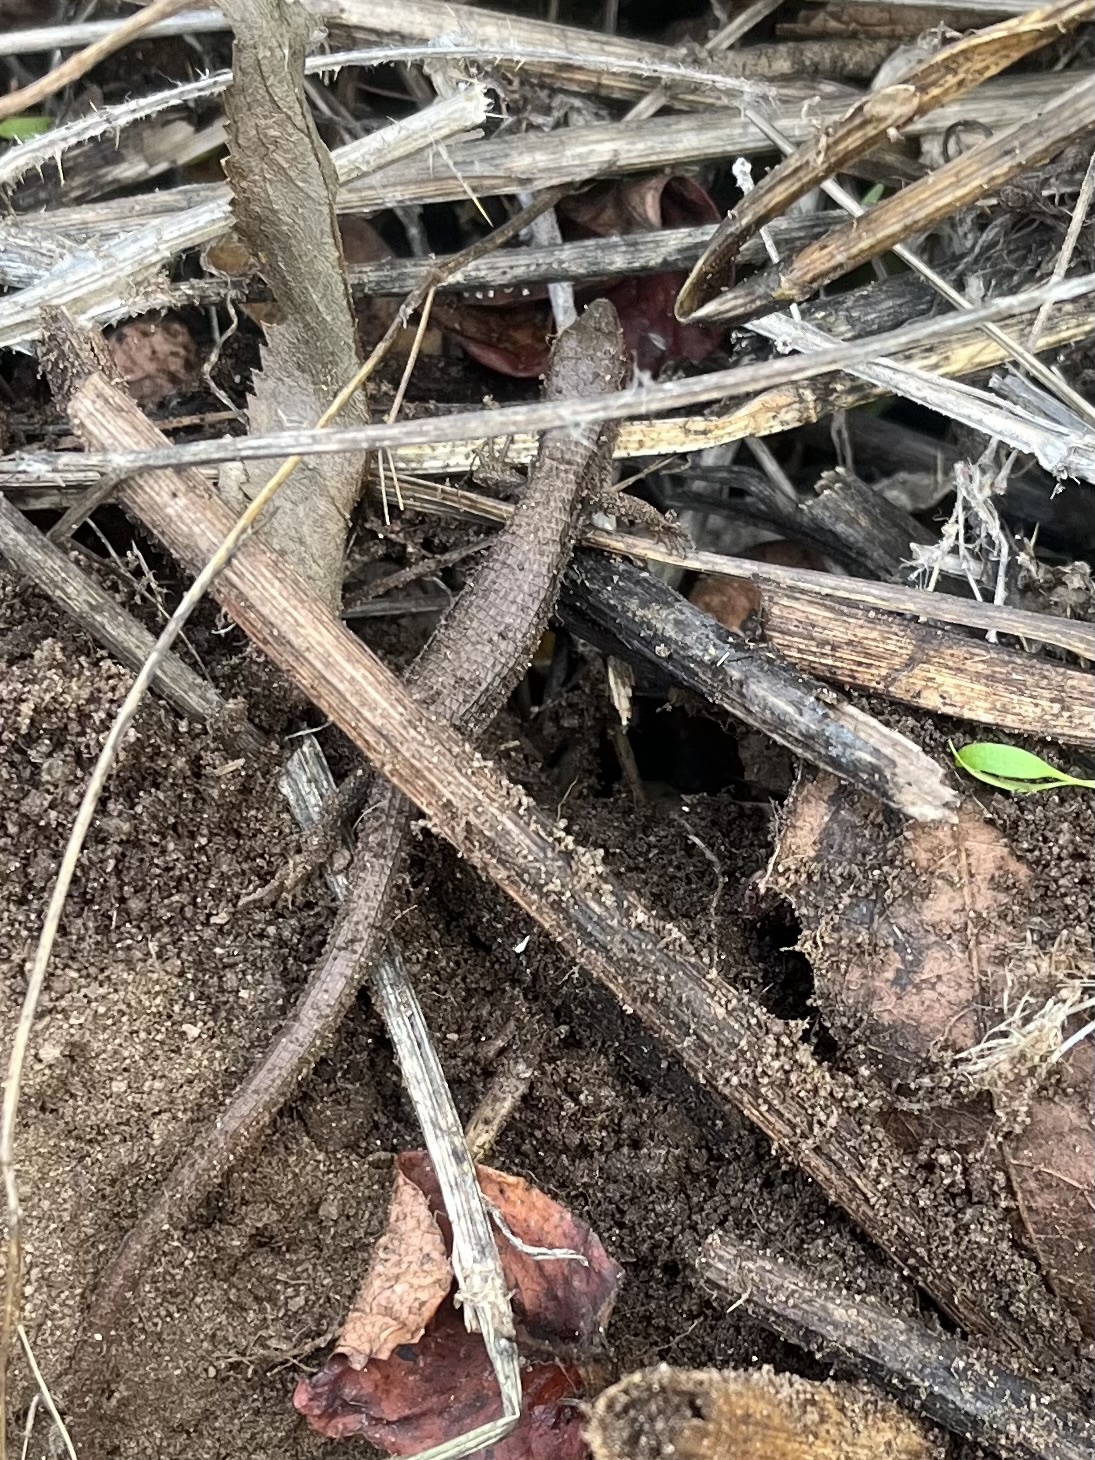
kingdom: Animalia
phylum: Chordata
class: Squamata
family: Anguidae
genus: Elgaria
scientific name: Elgaria multicarinata
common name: Southern alligator lizard
